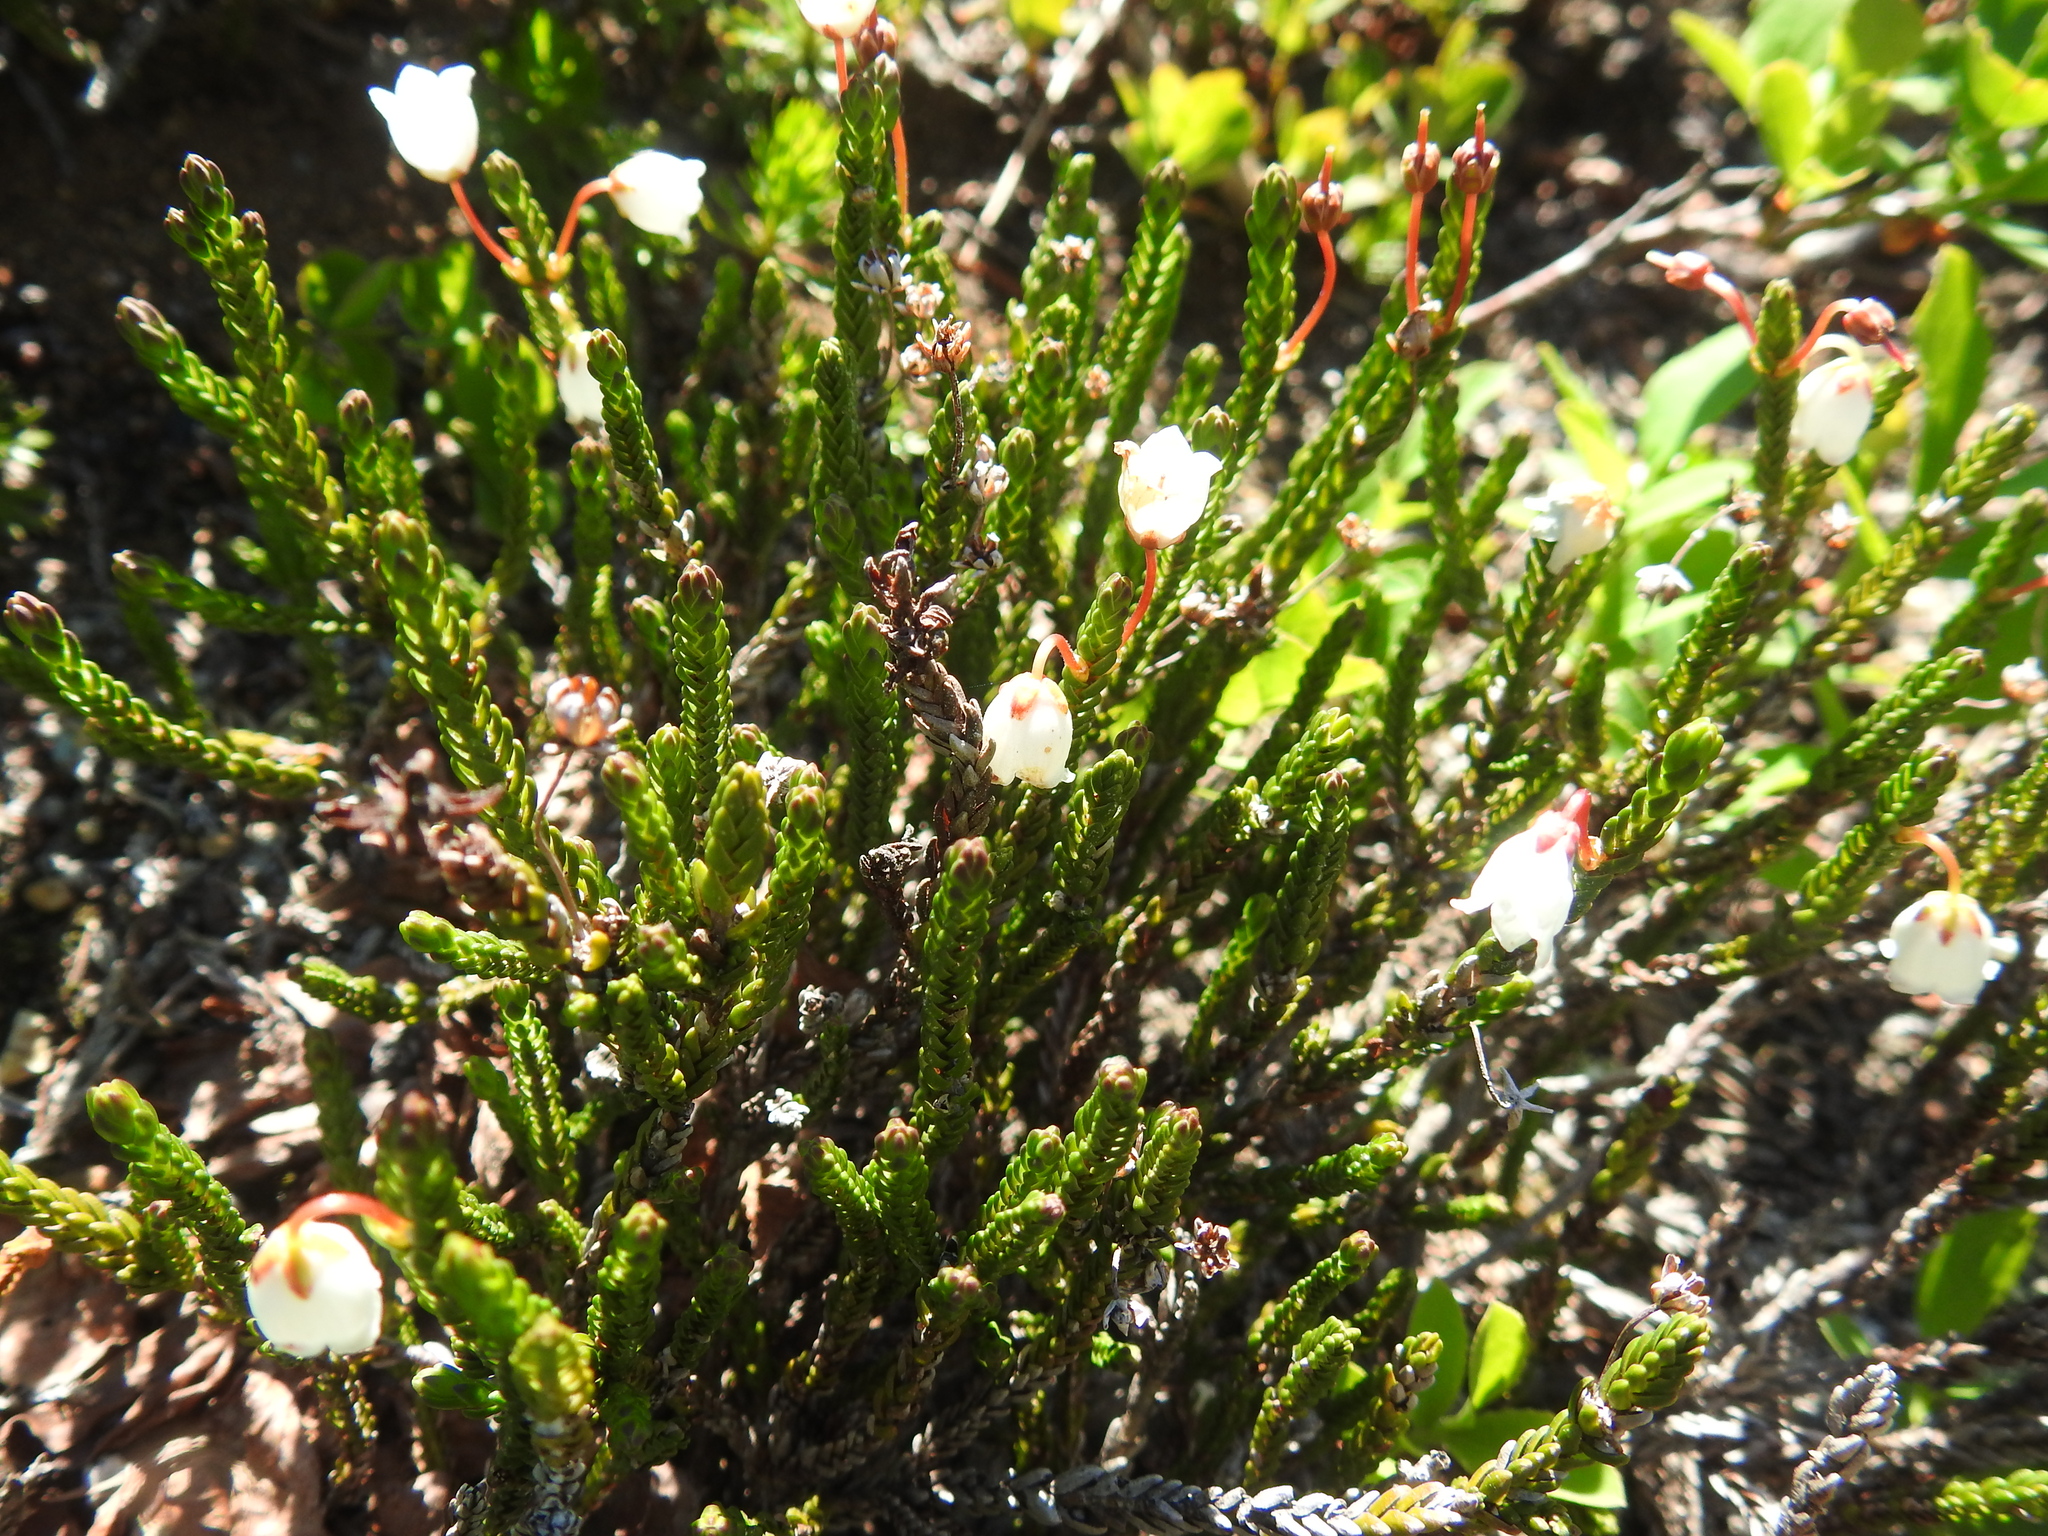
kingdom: Plantae
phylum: Tracheophyta
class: Magnoliopsida
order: Ericales
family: Ericaceae
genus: Cassiope
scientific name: Cassiope mertensiana
